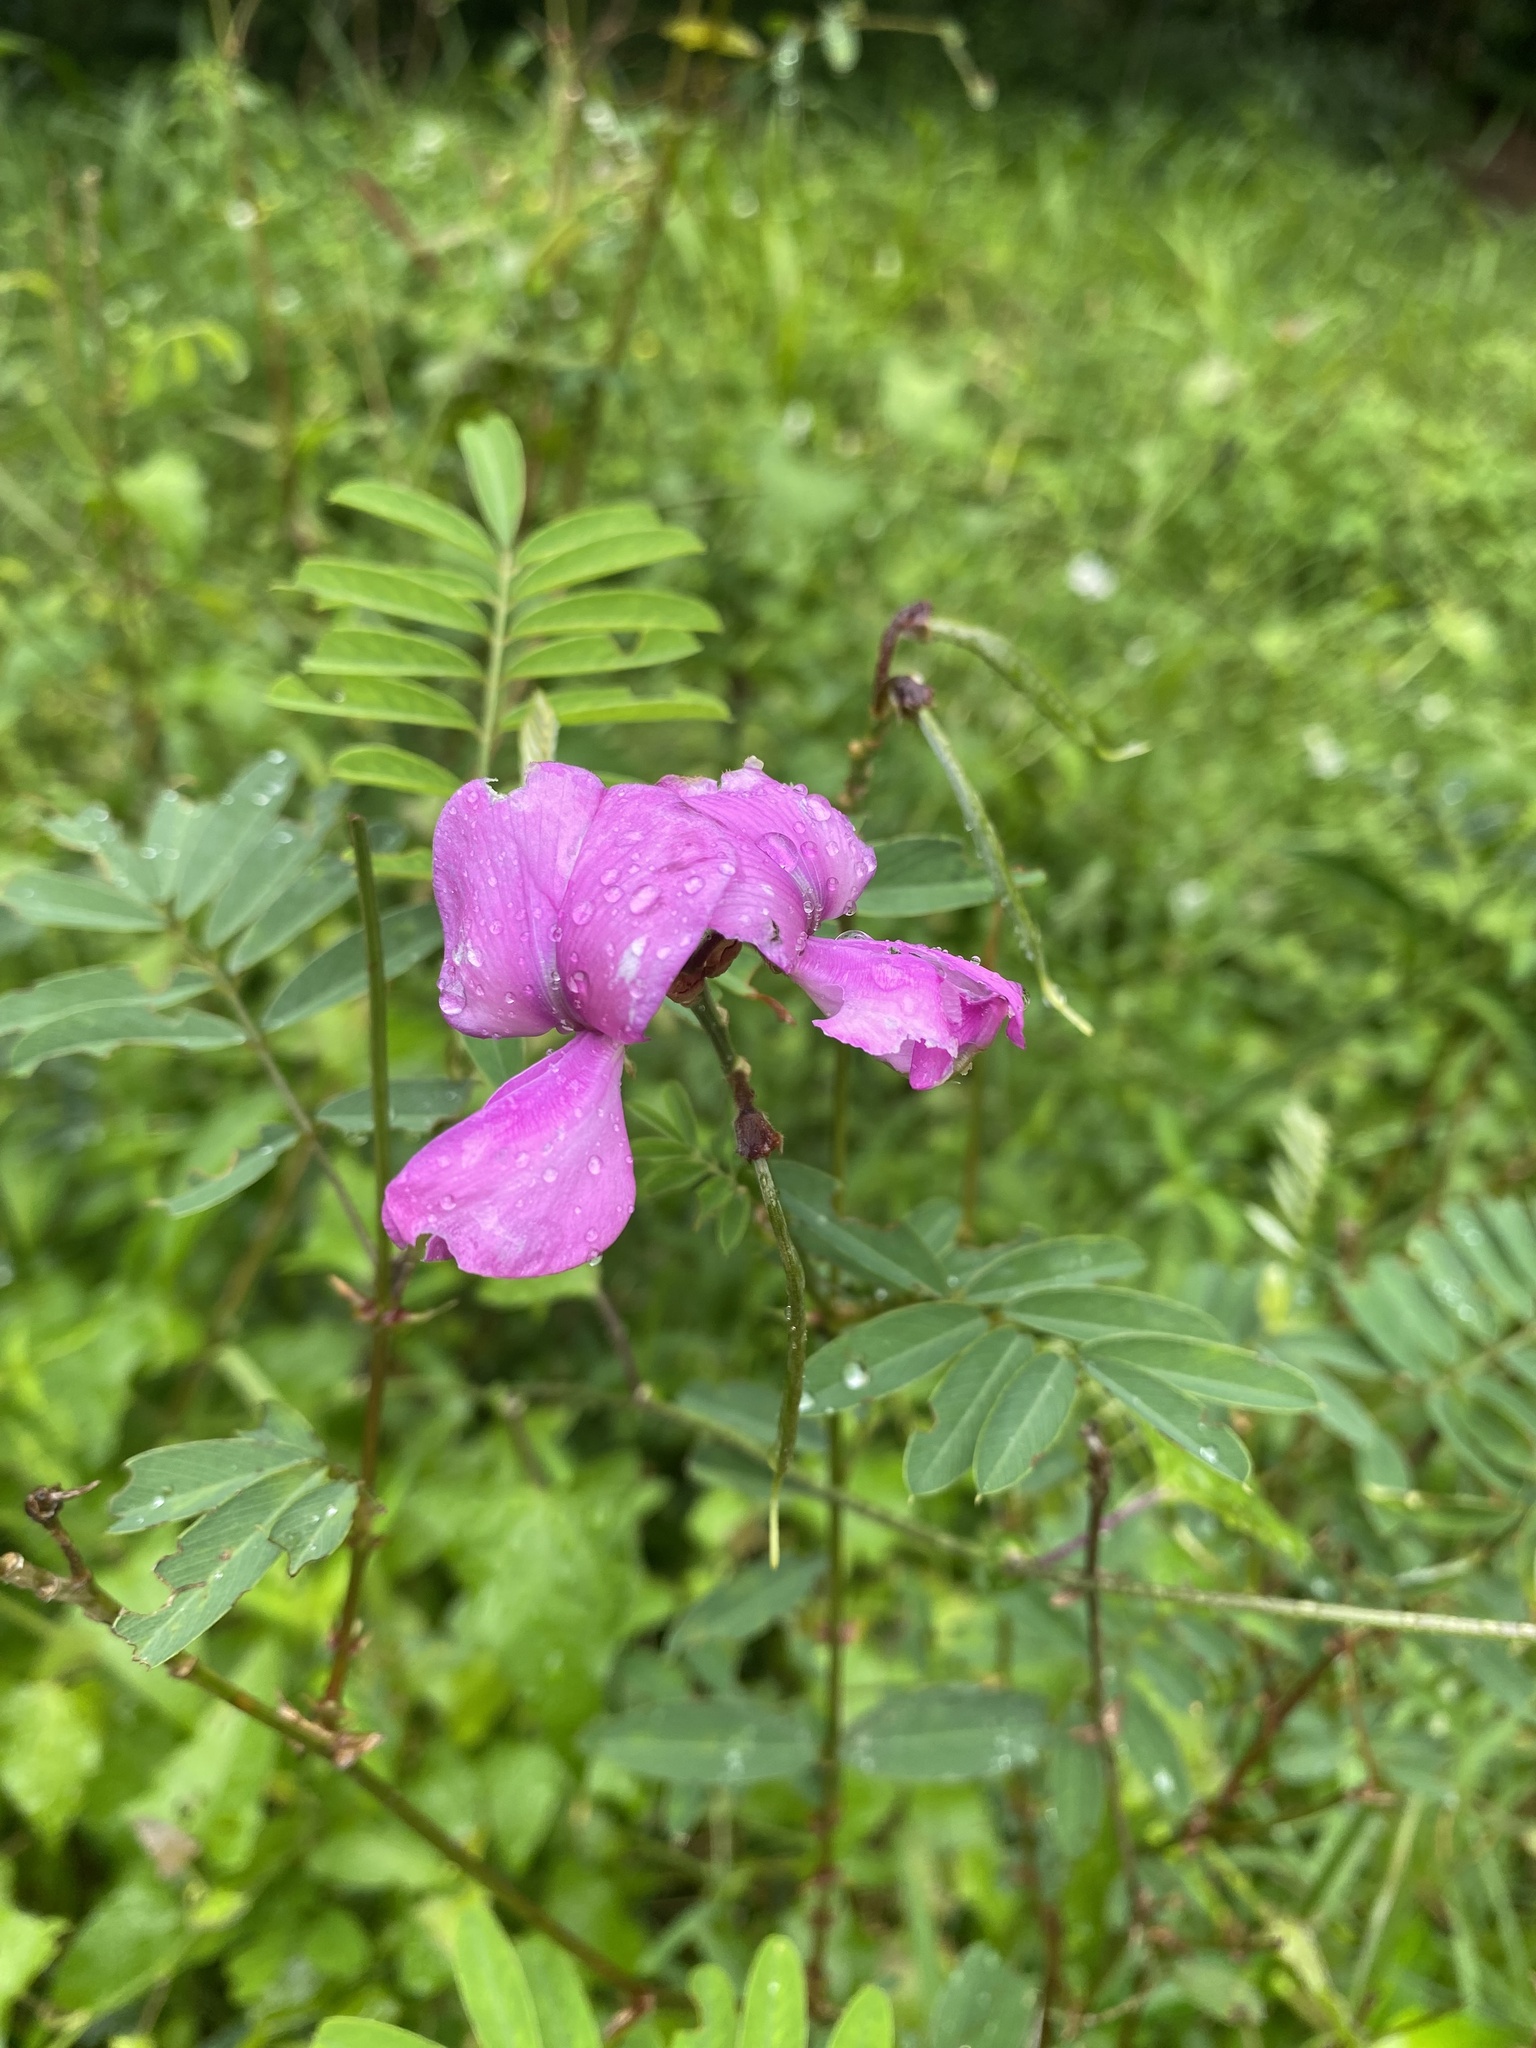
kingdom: Plantae
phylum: Tracheophyta
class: Magnoliopsida
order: Fabales
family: Fabaceae
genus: Tephrosia
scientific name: Tephrosia grandiflora
